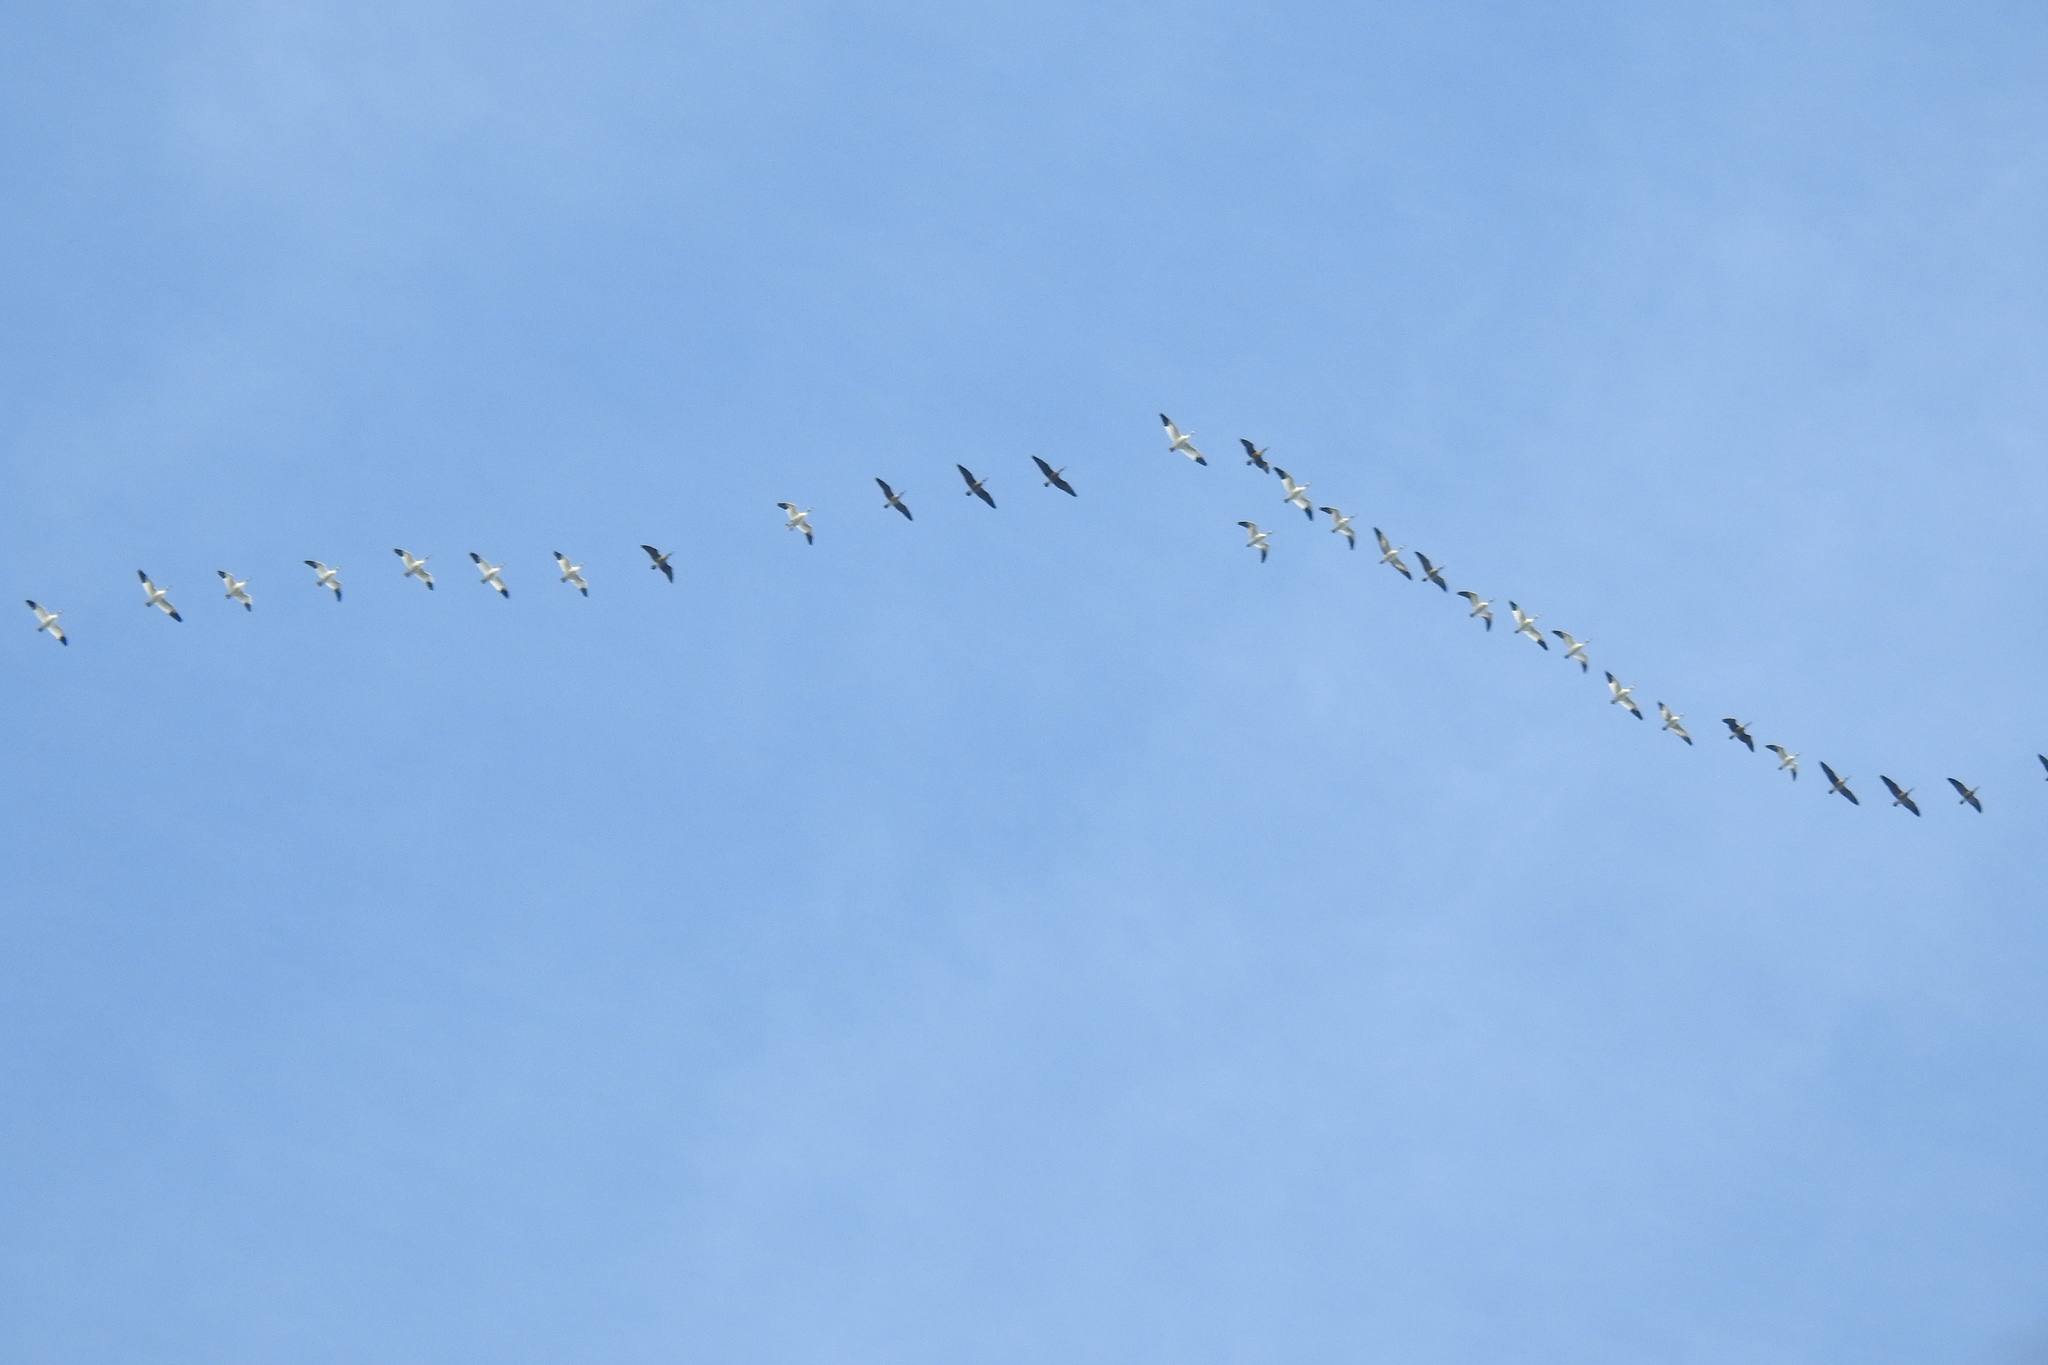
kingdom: Animalia
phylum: Chordata
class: Aves
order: Anseriformes
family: Anatidae
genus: Anser
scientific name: Anser caerulescens
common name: Snow goose
